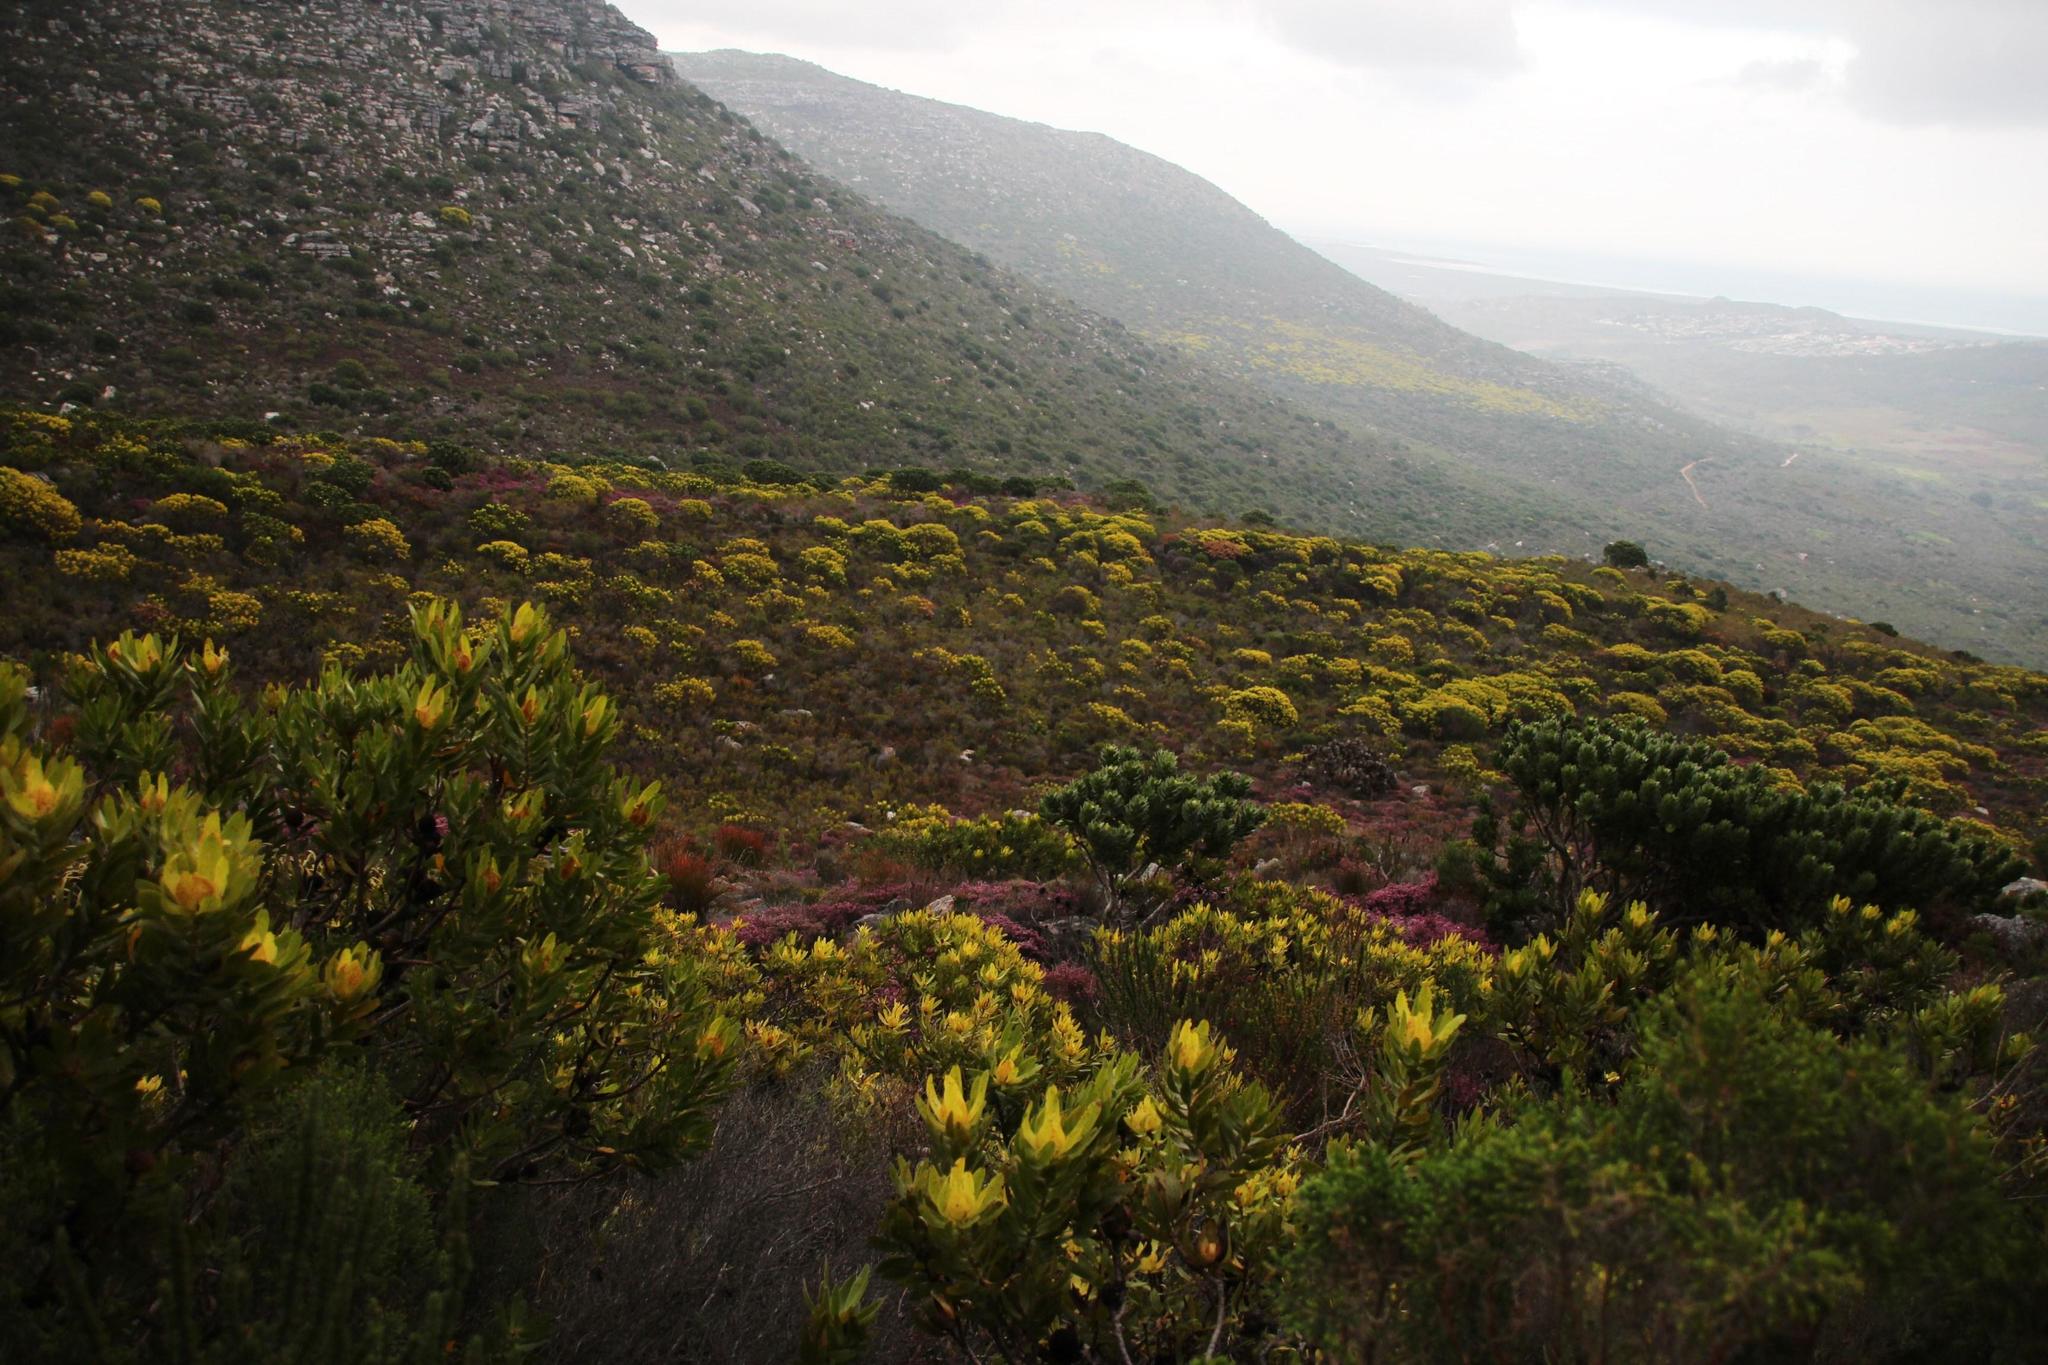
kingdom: Plantae
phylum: Tracheophyta
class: Magnoliopsida
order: Ericales
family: Ericaceae
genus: Erica
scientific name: Erica glabella
